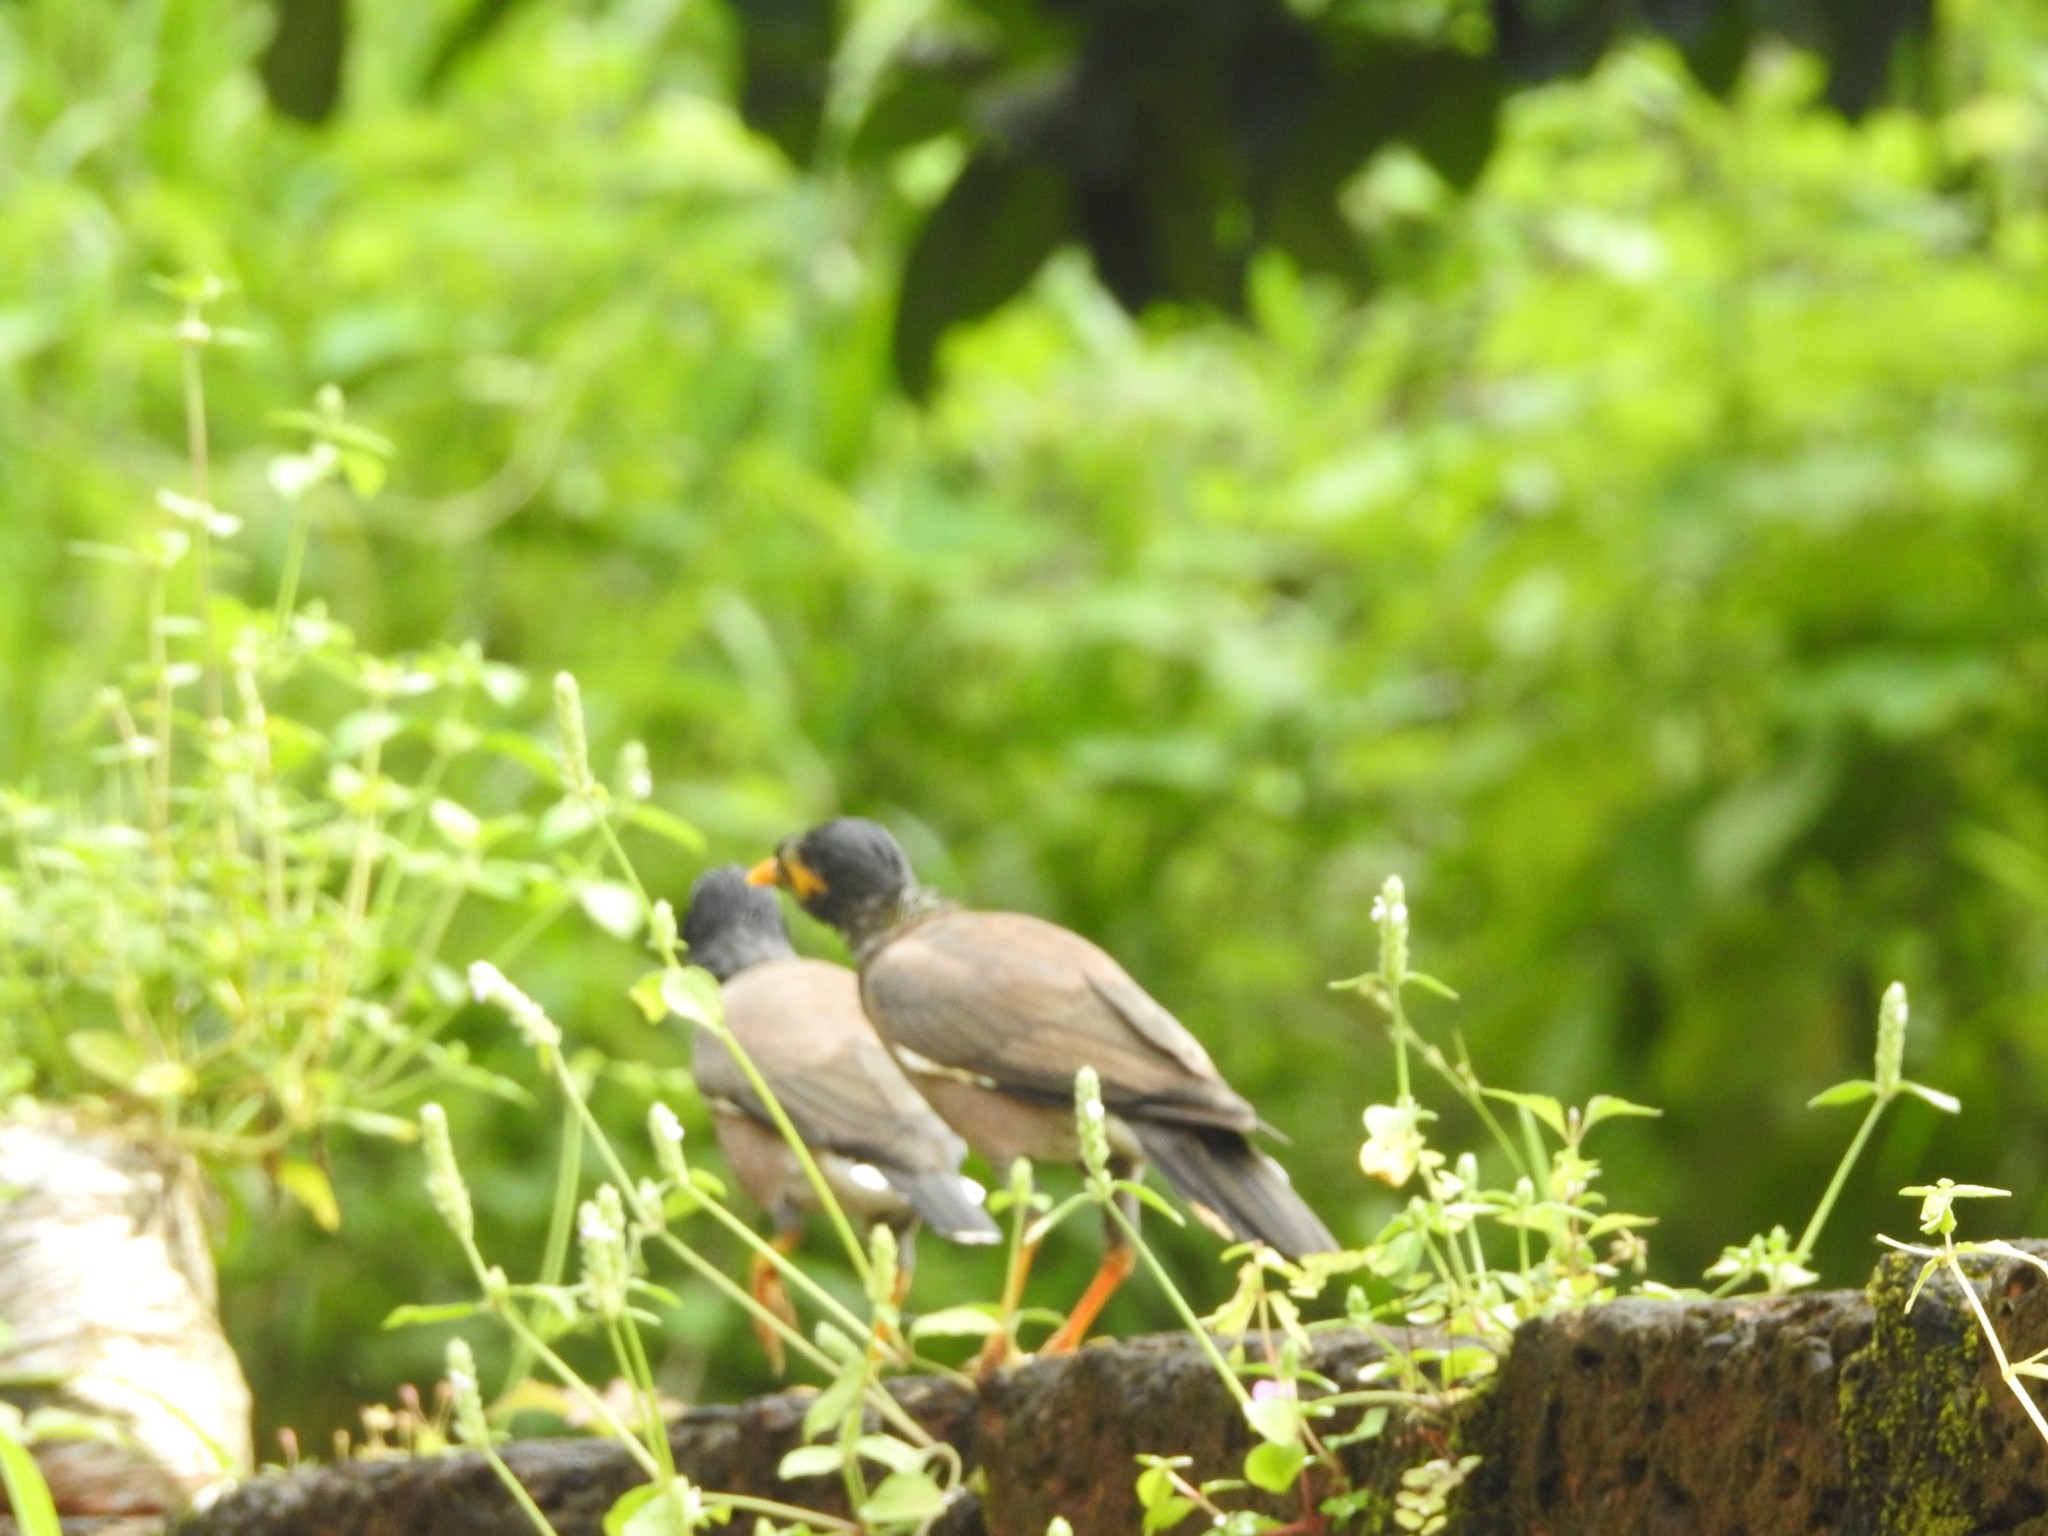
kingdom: Animalia
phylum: Chordata
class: Aves
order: Passeriformes
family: Sturnidae
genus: Acridotheres
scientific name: Acridotheres tristis
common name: Common myna
